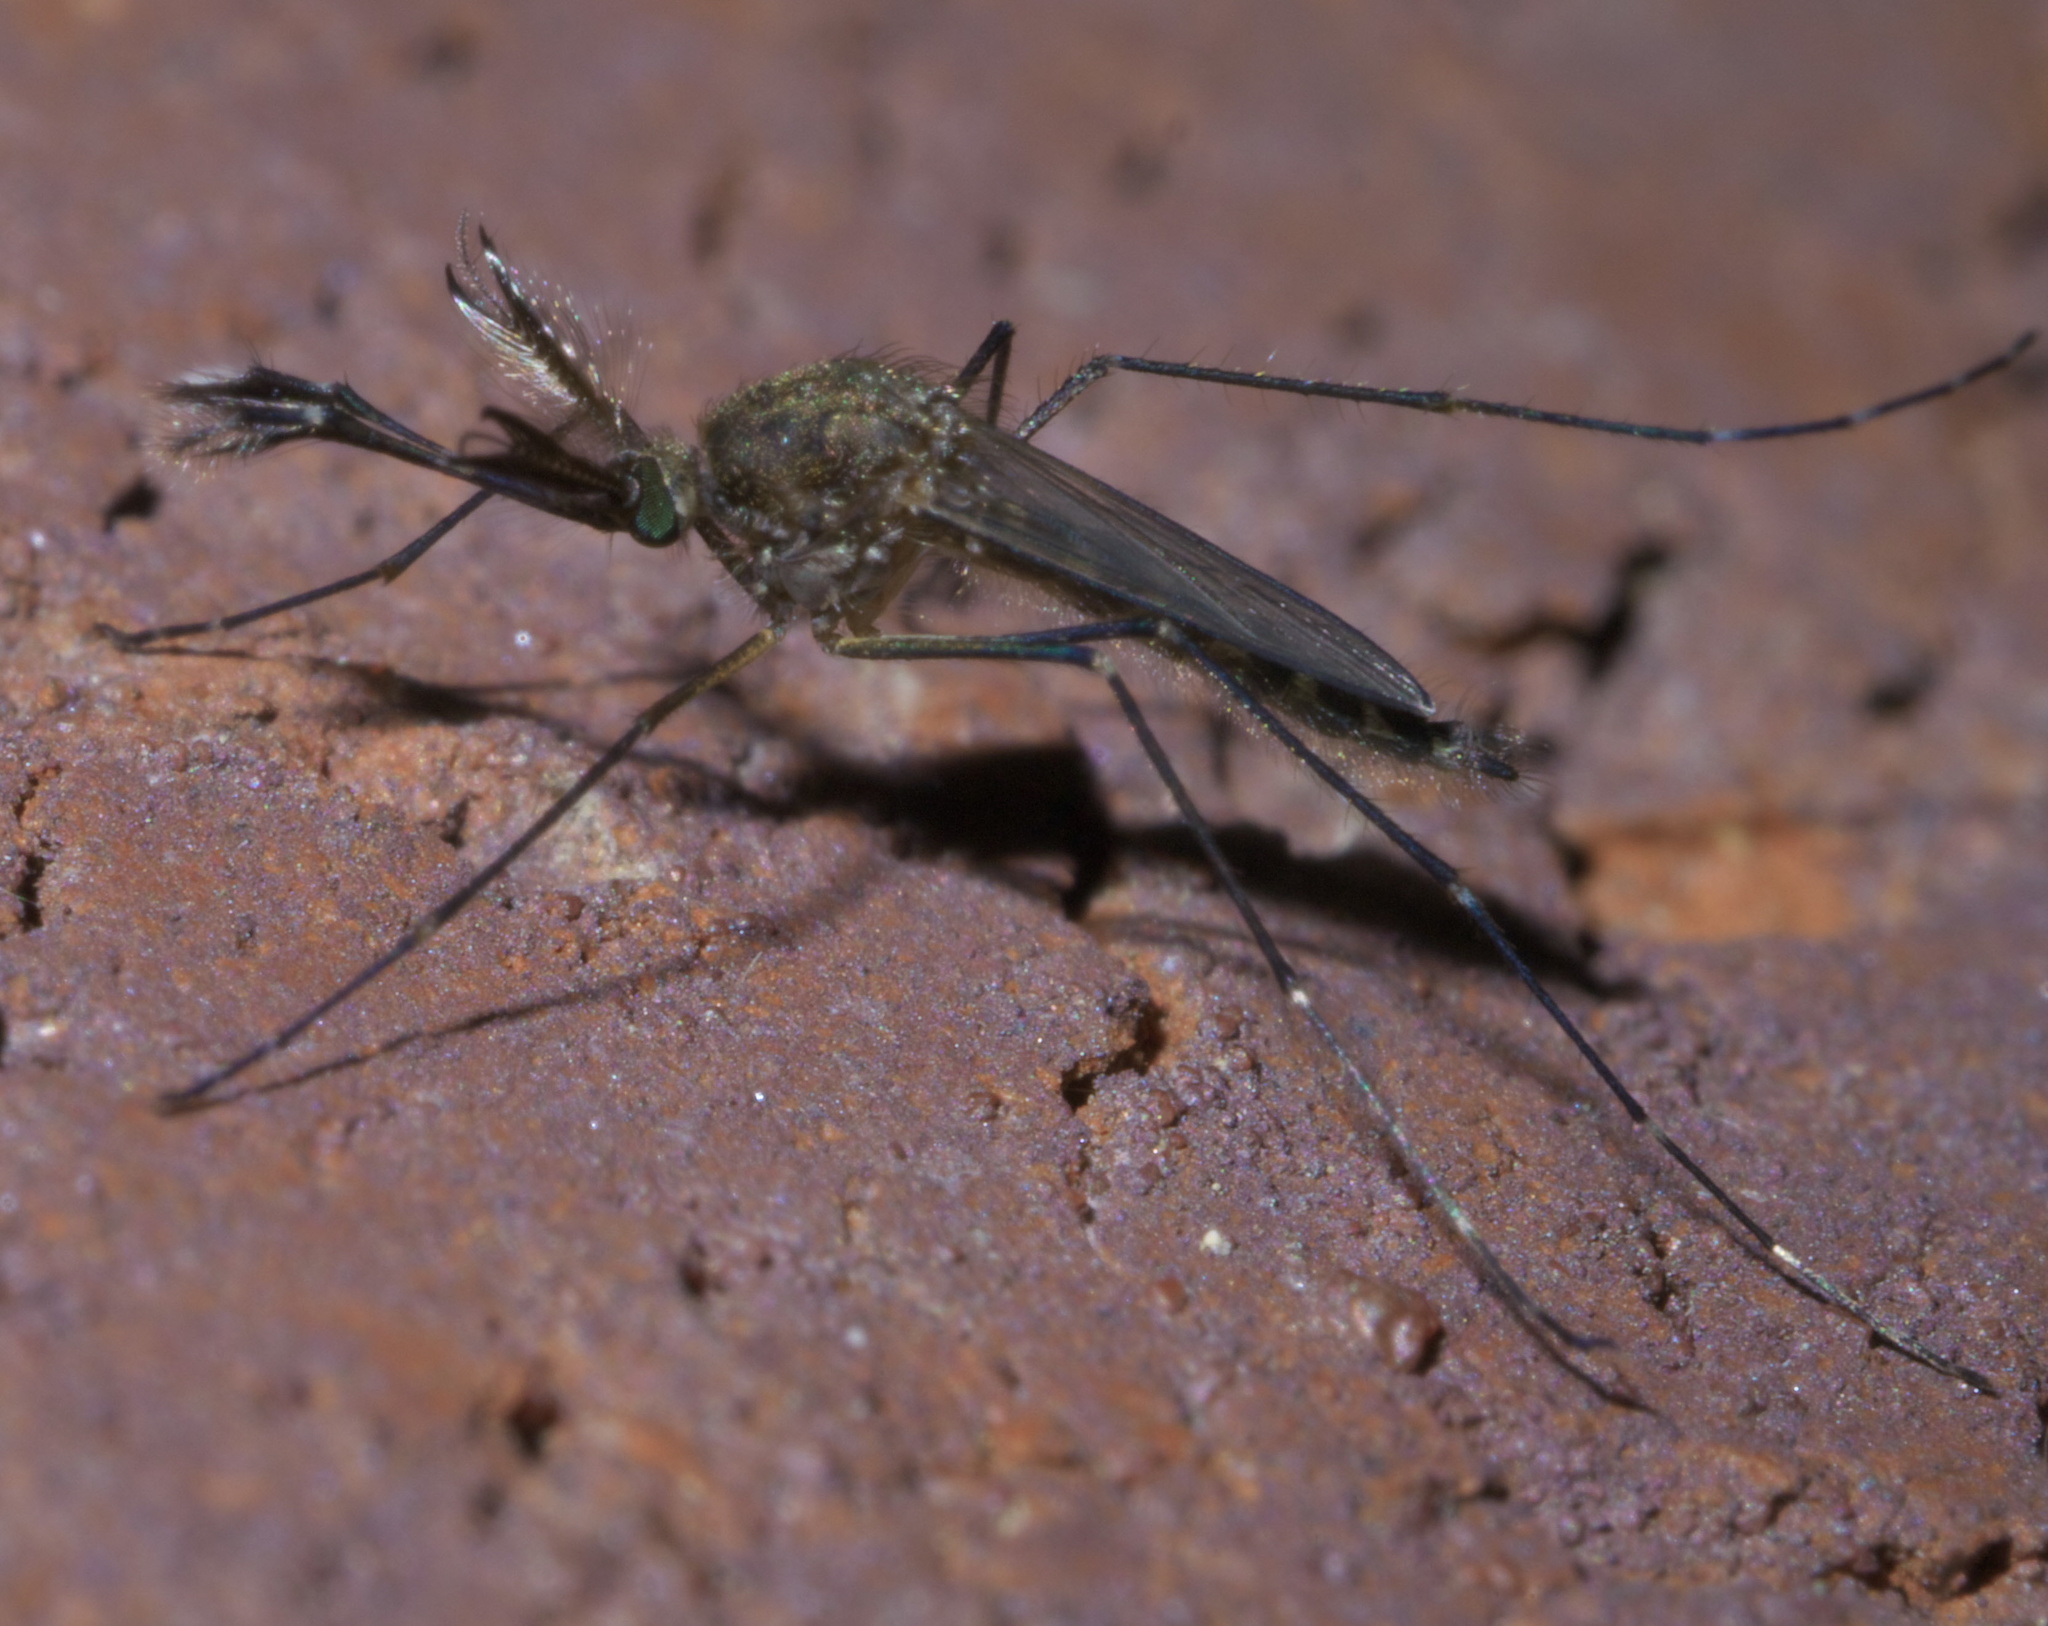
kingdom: Animalia
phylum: Arthropoda
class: Insecta
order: Diptera
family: Culicidae
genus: Aedes
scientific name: Aedes vexans
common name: Inland floodwater mosquito
